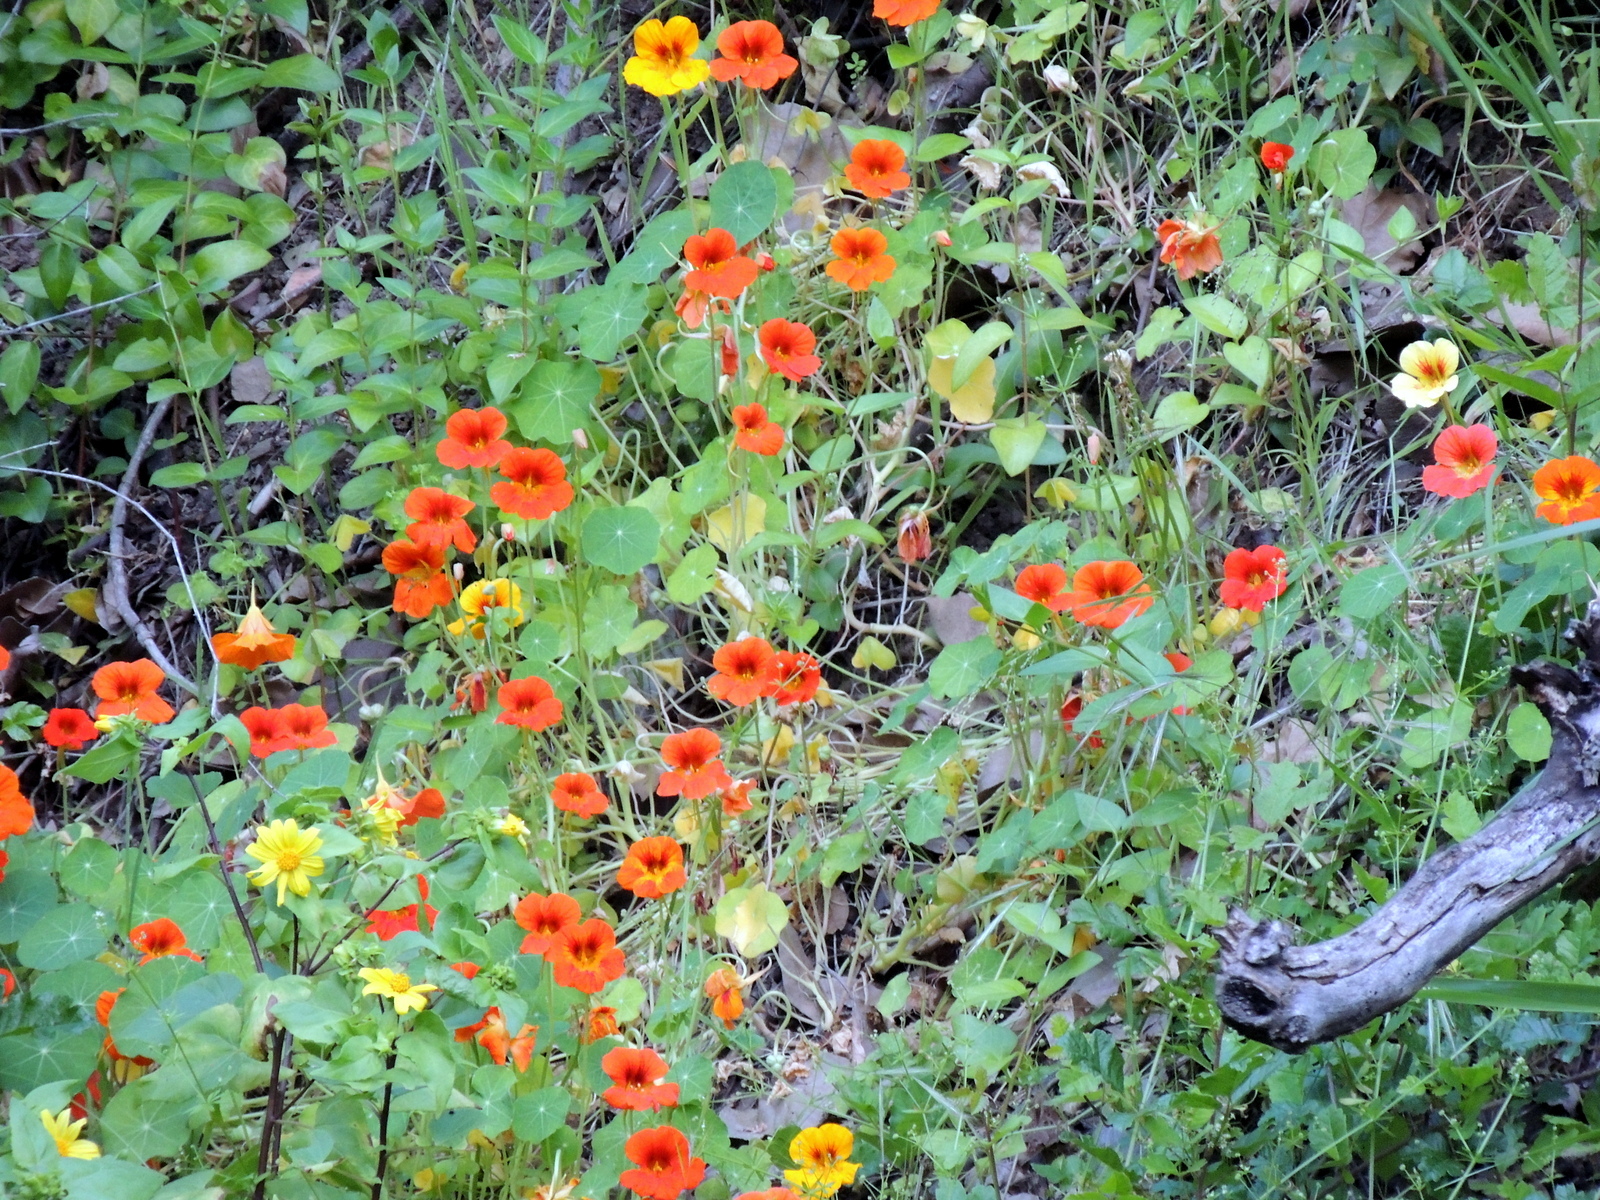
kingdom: Plantae
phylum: Tracheophyta
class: Magnoliopsida
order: Brassicales
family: Tropaeolaceae
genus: Tropaeolum
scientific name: Tropaeolum majus
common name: Nasturtium
